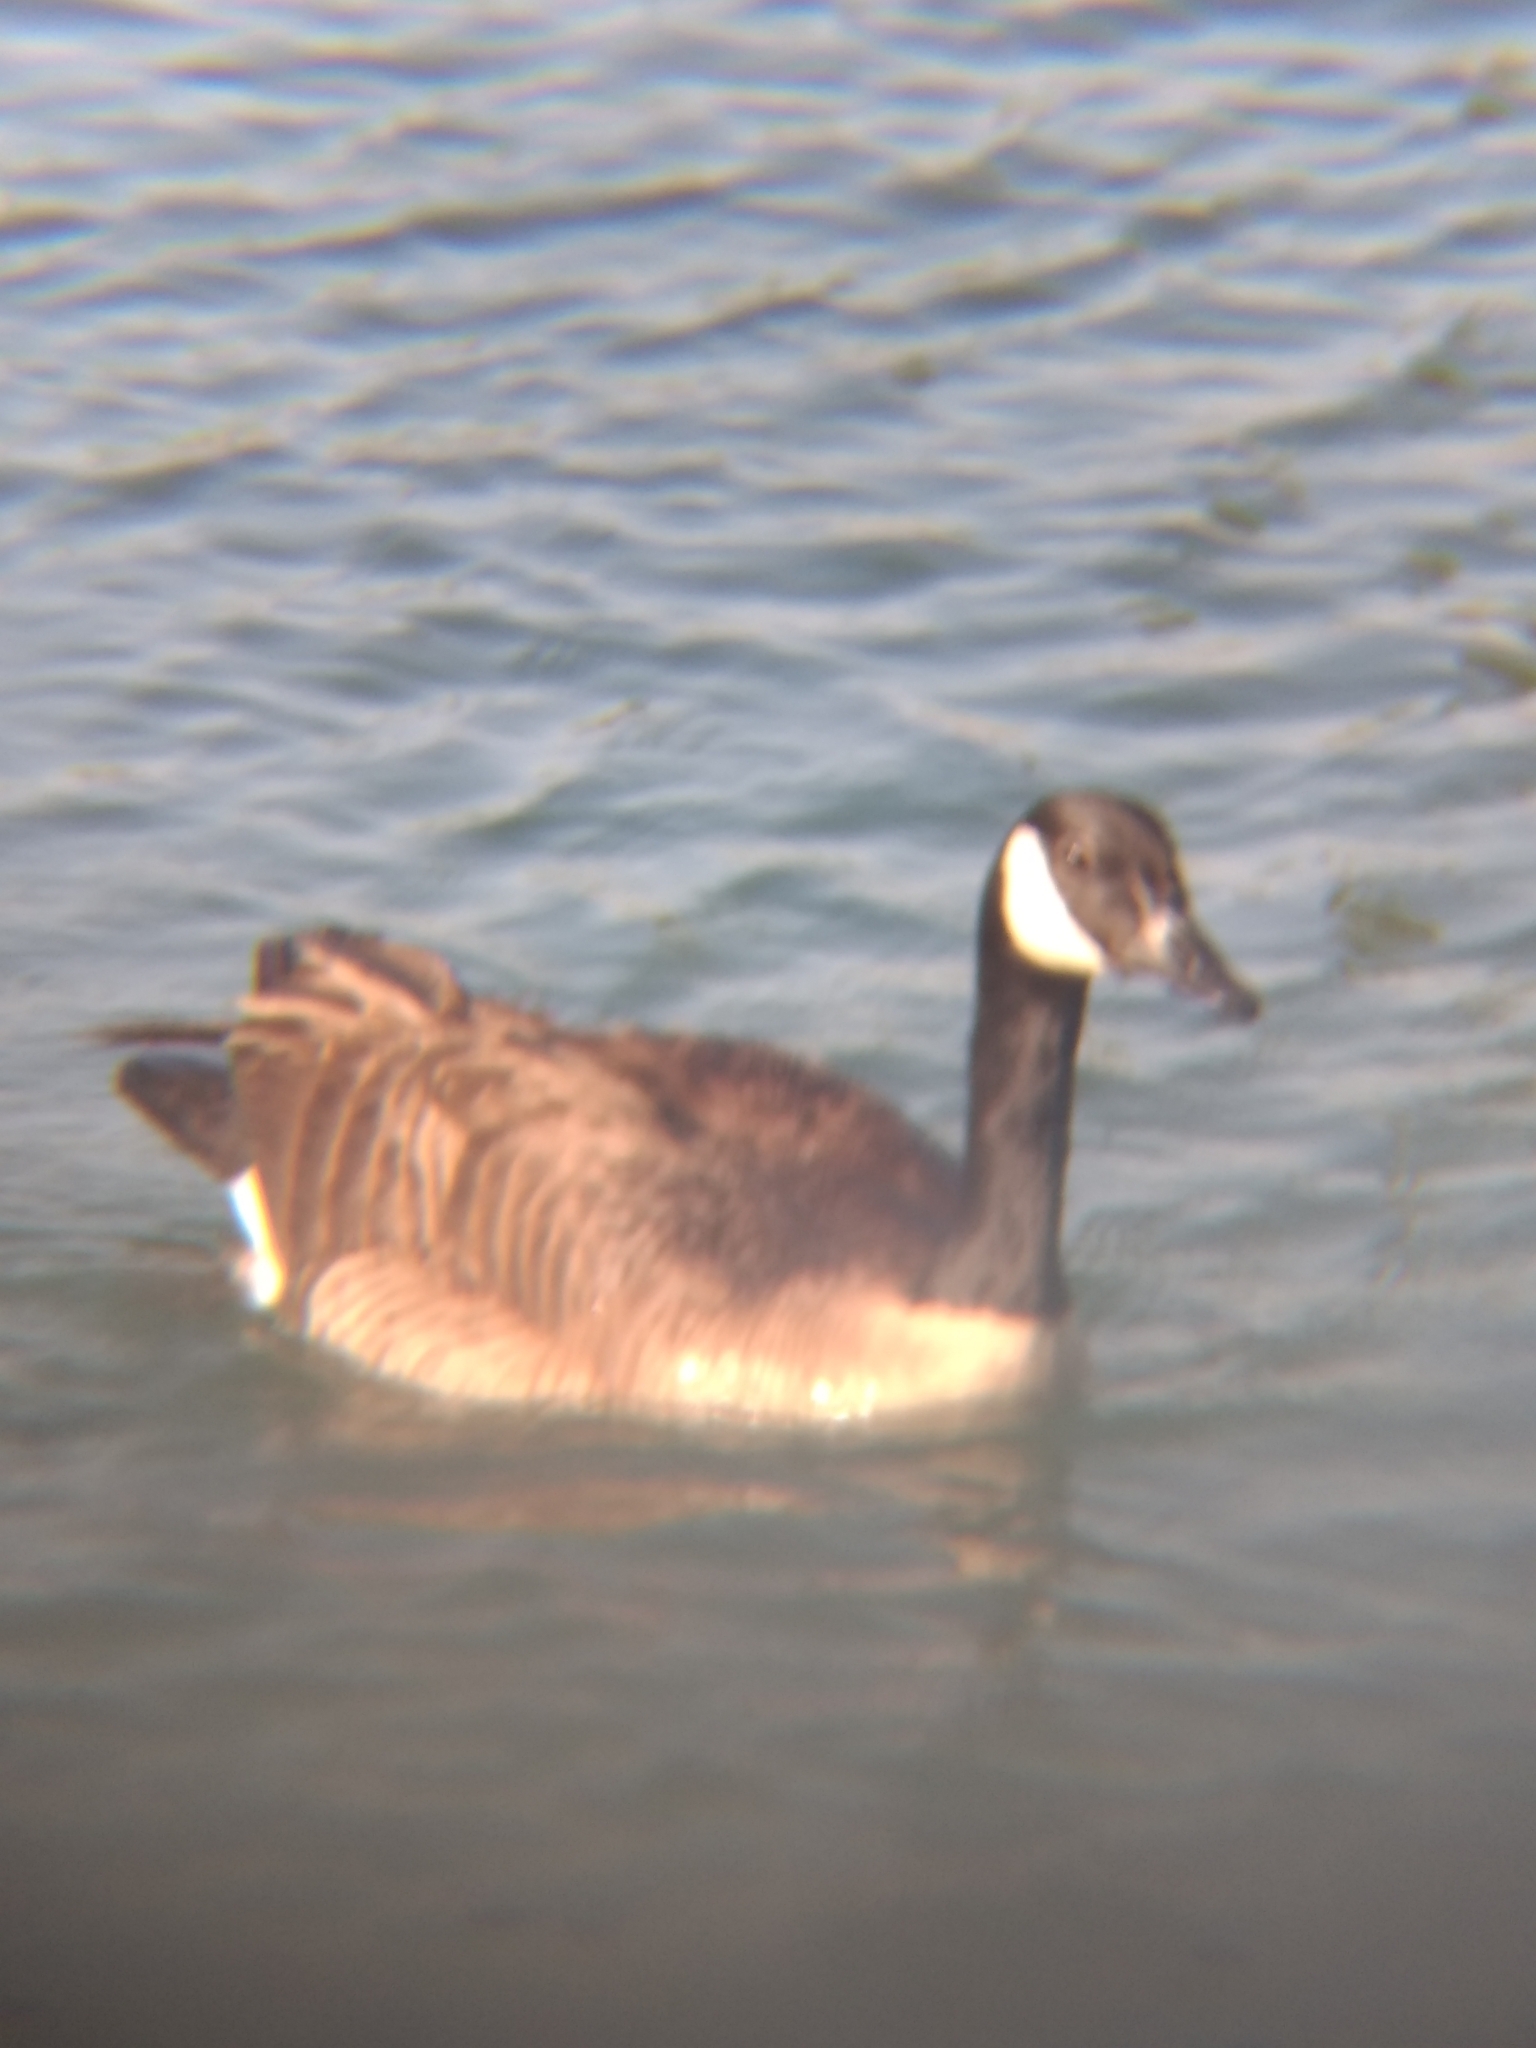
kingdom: Animalia
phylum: Chordata
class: Aves
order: Anseriformes
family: Anatidae
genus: Branta
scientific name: Branta canadensis
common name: Canada goose
